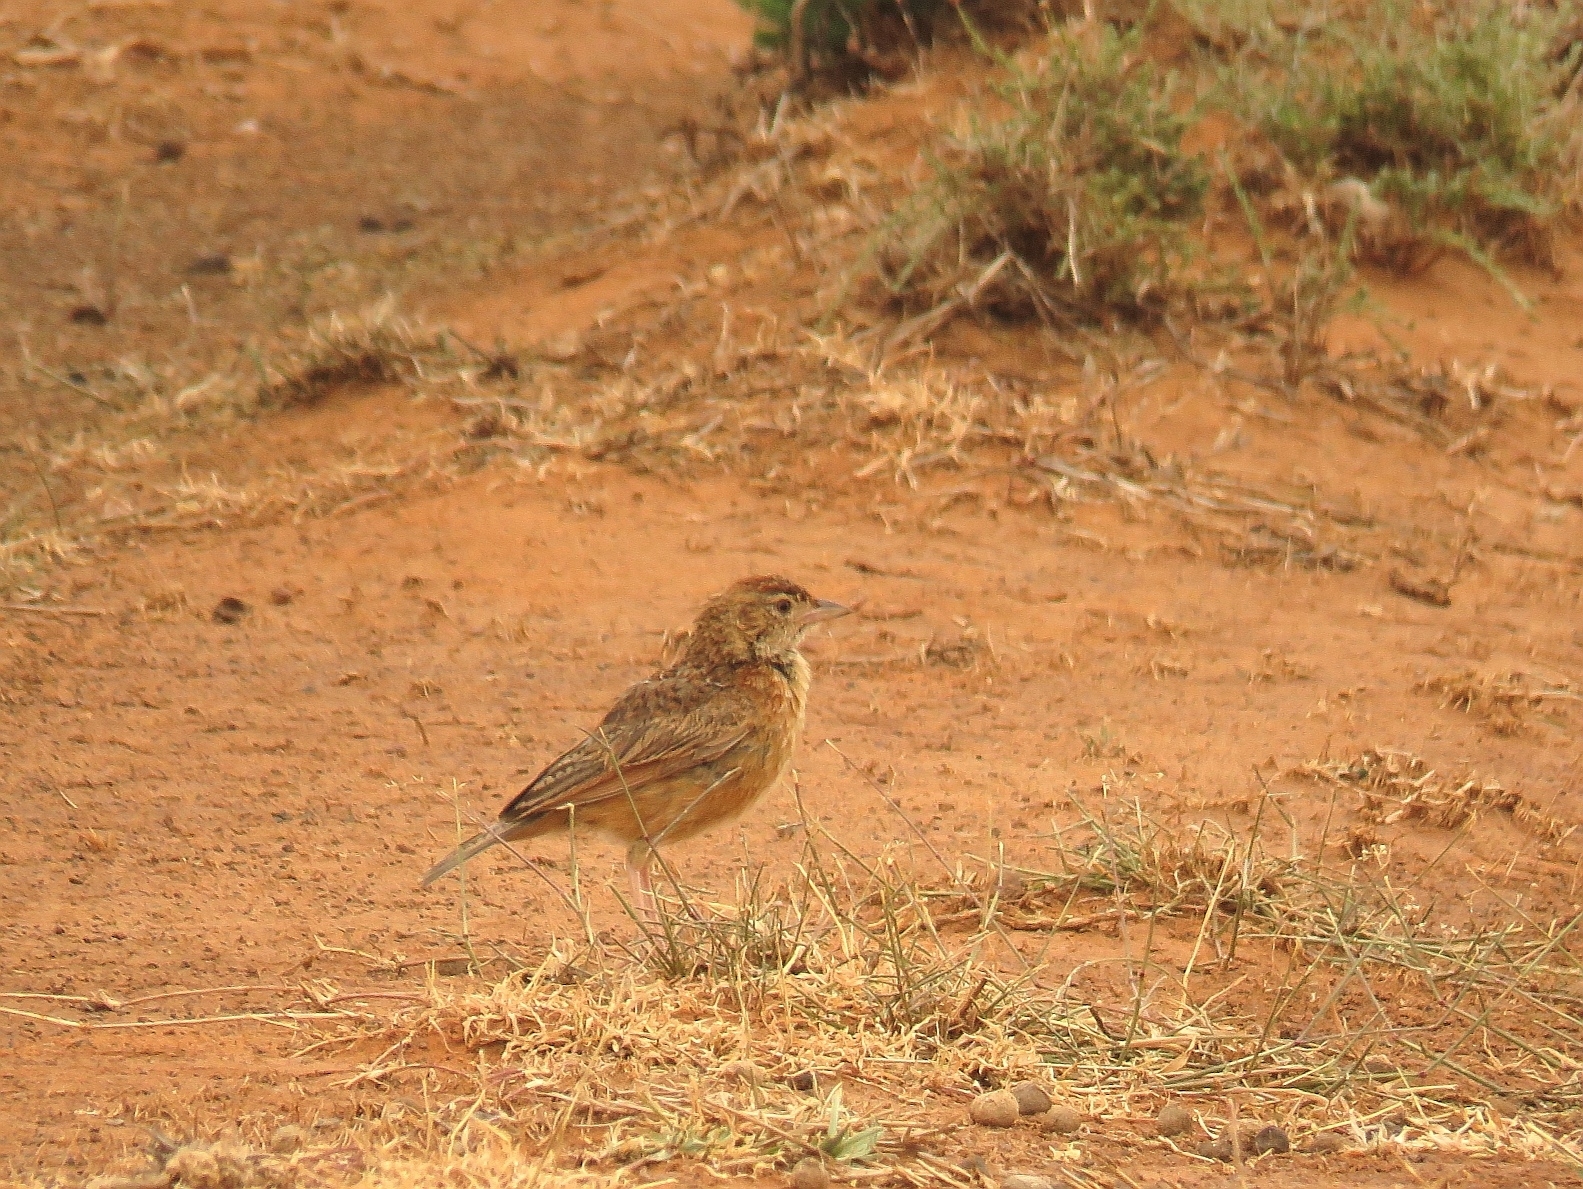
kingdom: Animalia
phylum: Chordata
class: Aves
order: Passeriformes
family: Alaudidae
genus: Mirafra
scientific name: Mirafra fasciolata
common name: Eastern clapper lark
